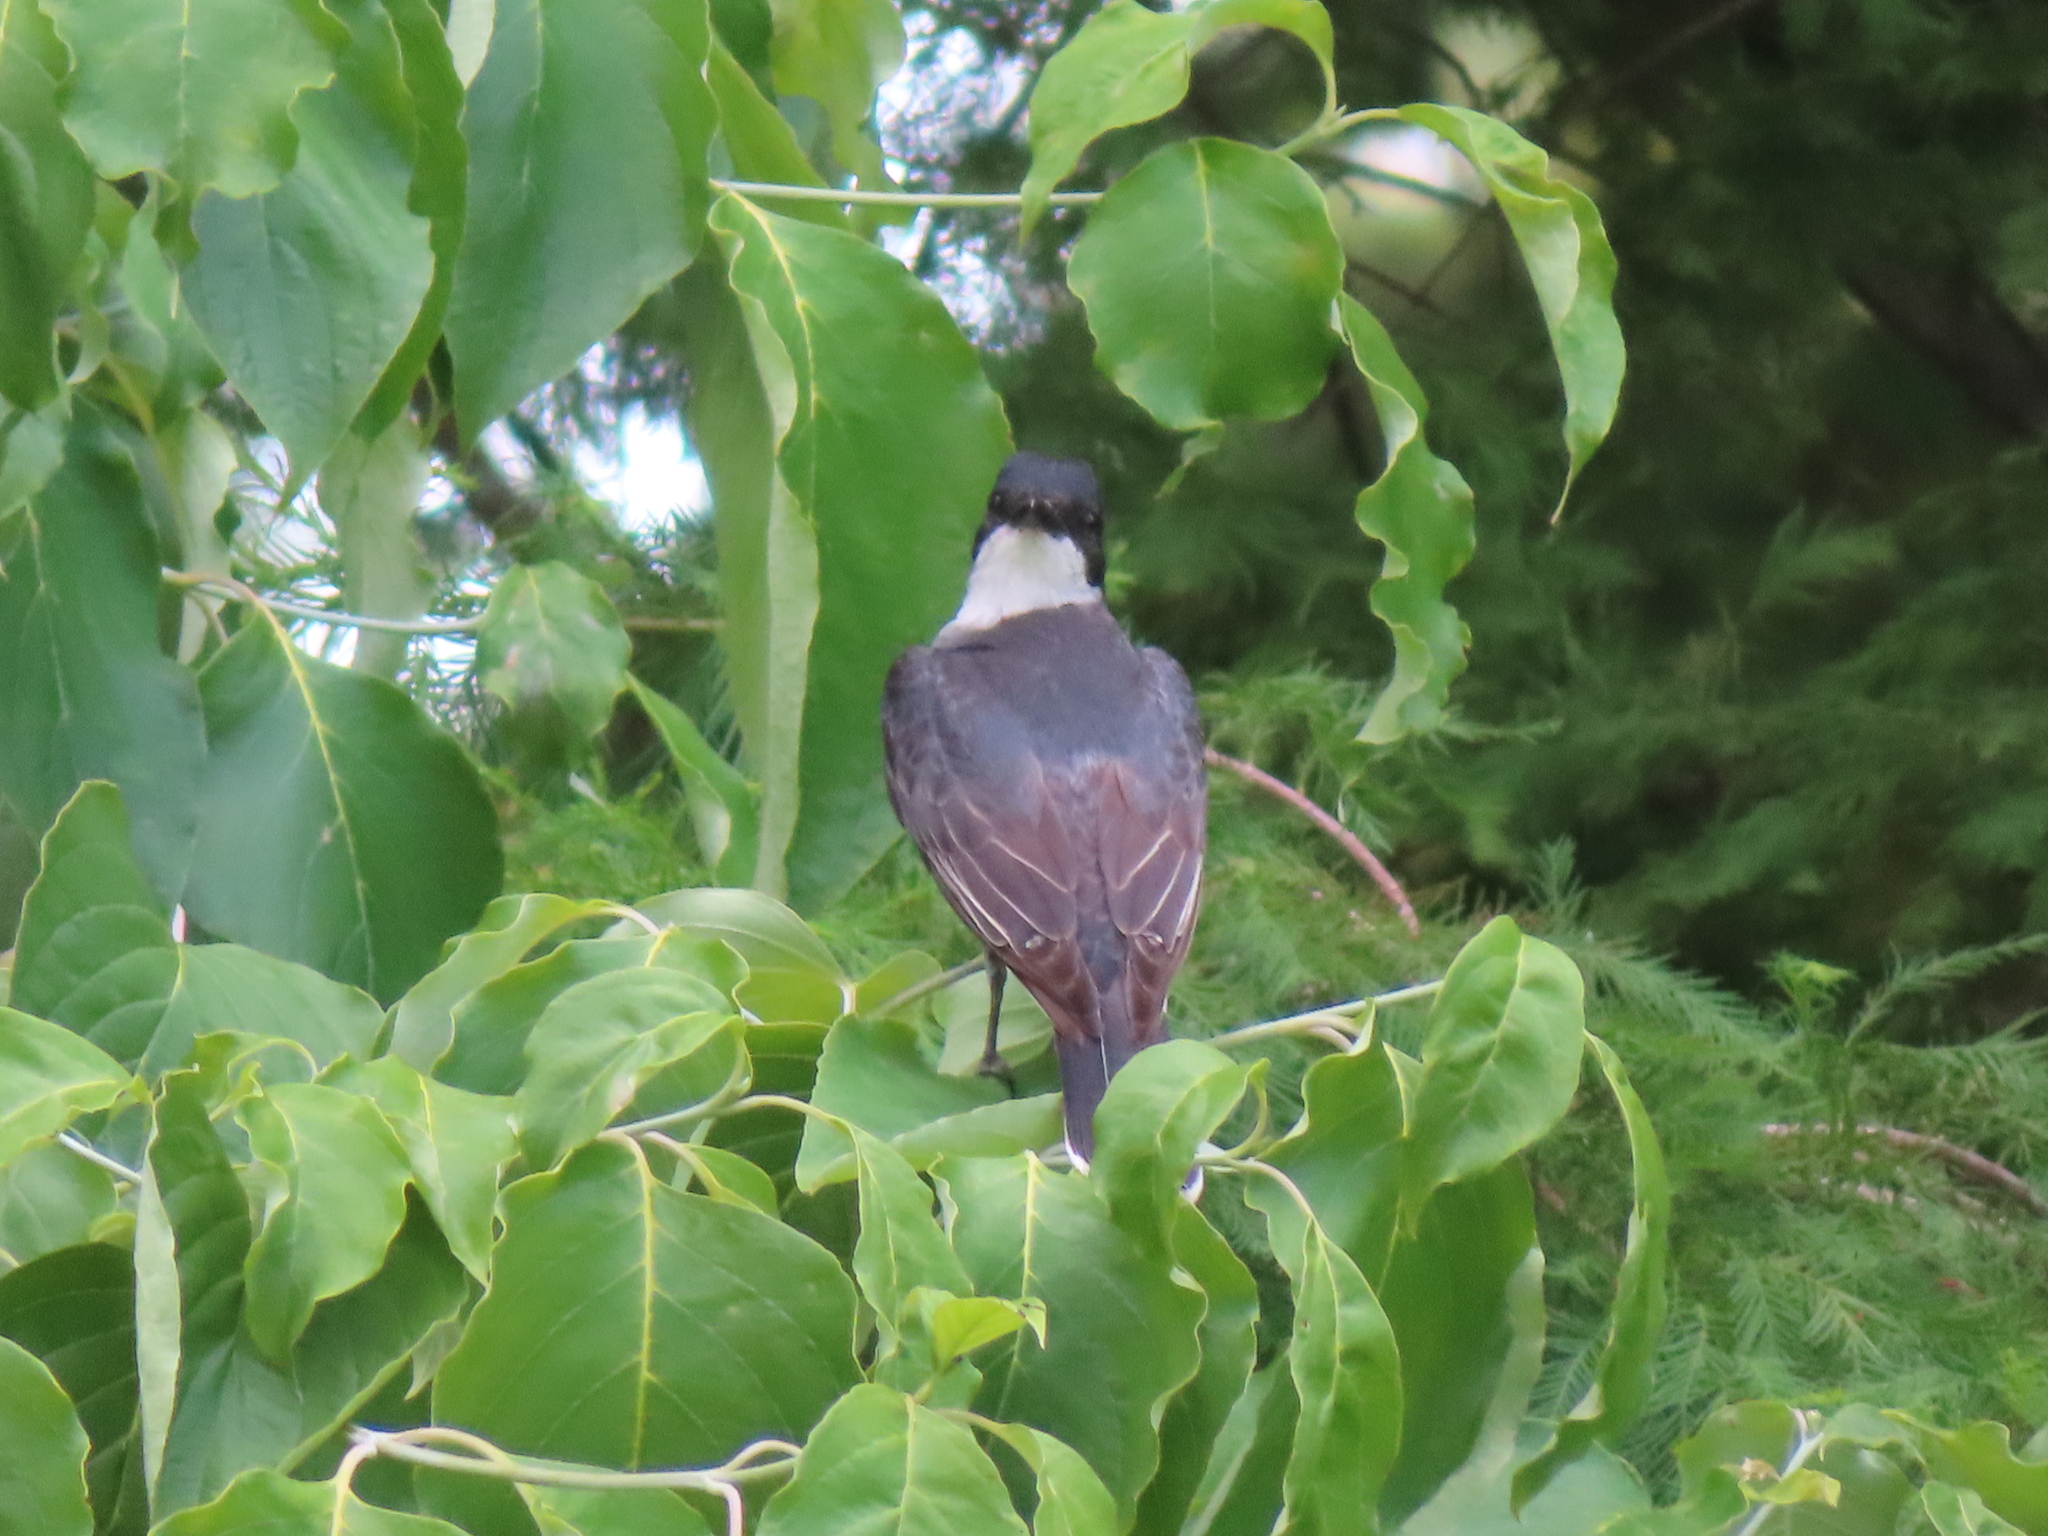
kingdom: Animalia
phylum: Chordata
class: Aves
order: Passeriformes
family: Tyrannidae
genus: Tyrannus
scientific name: Tyrannus tyrannus
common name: Eastern kingbird
